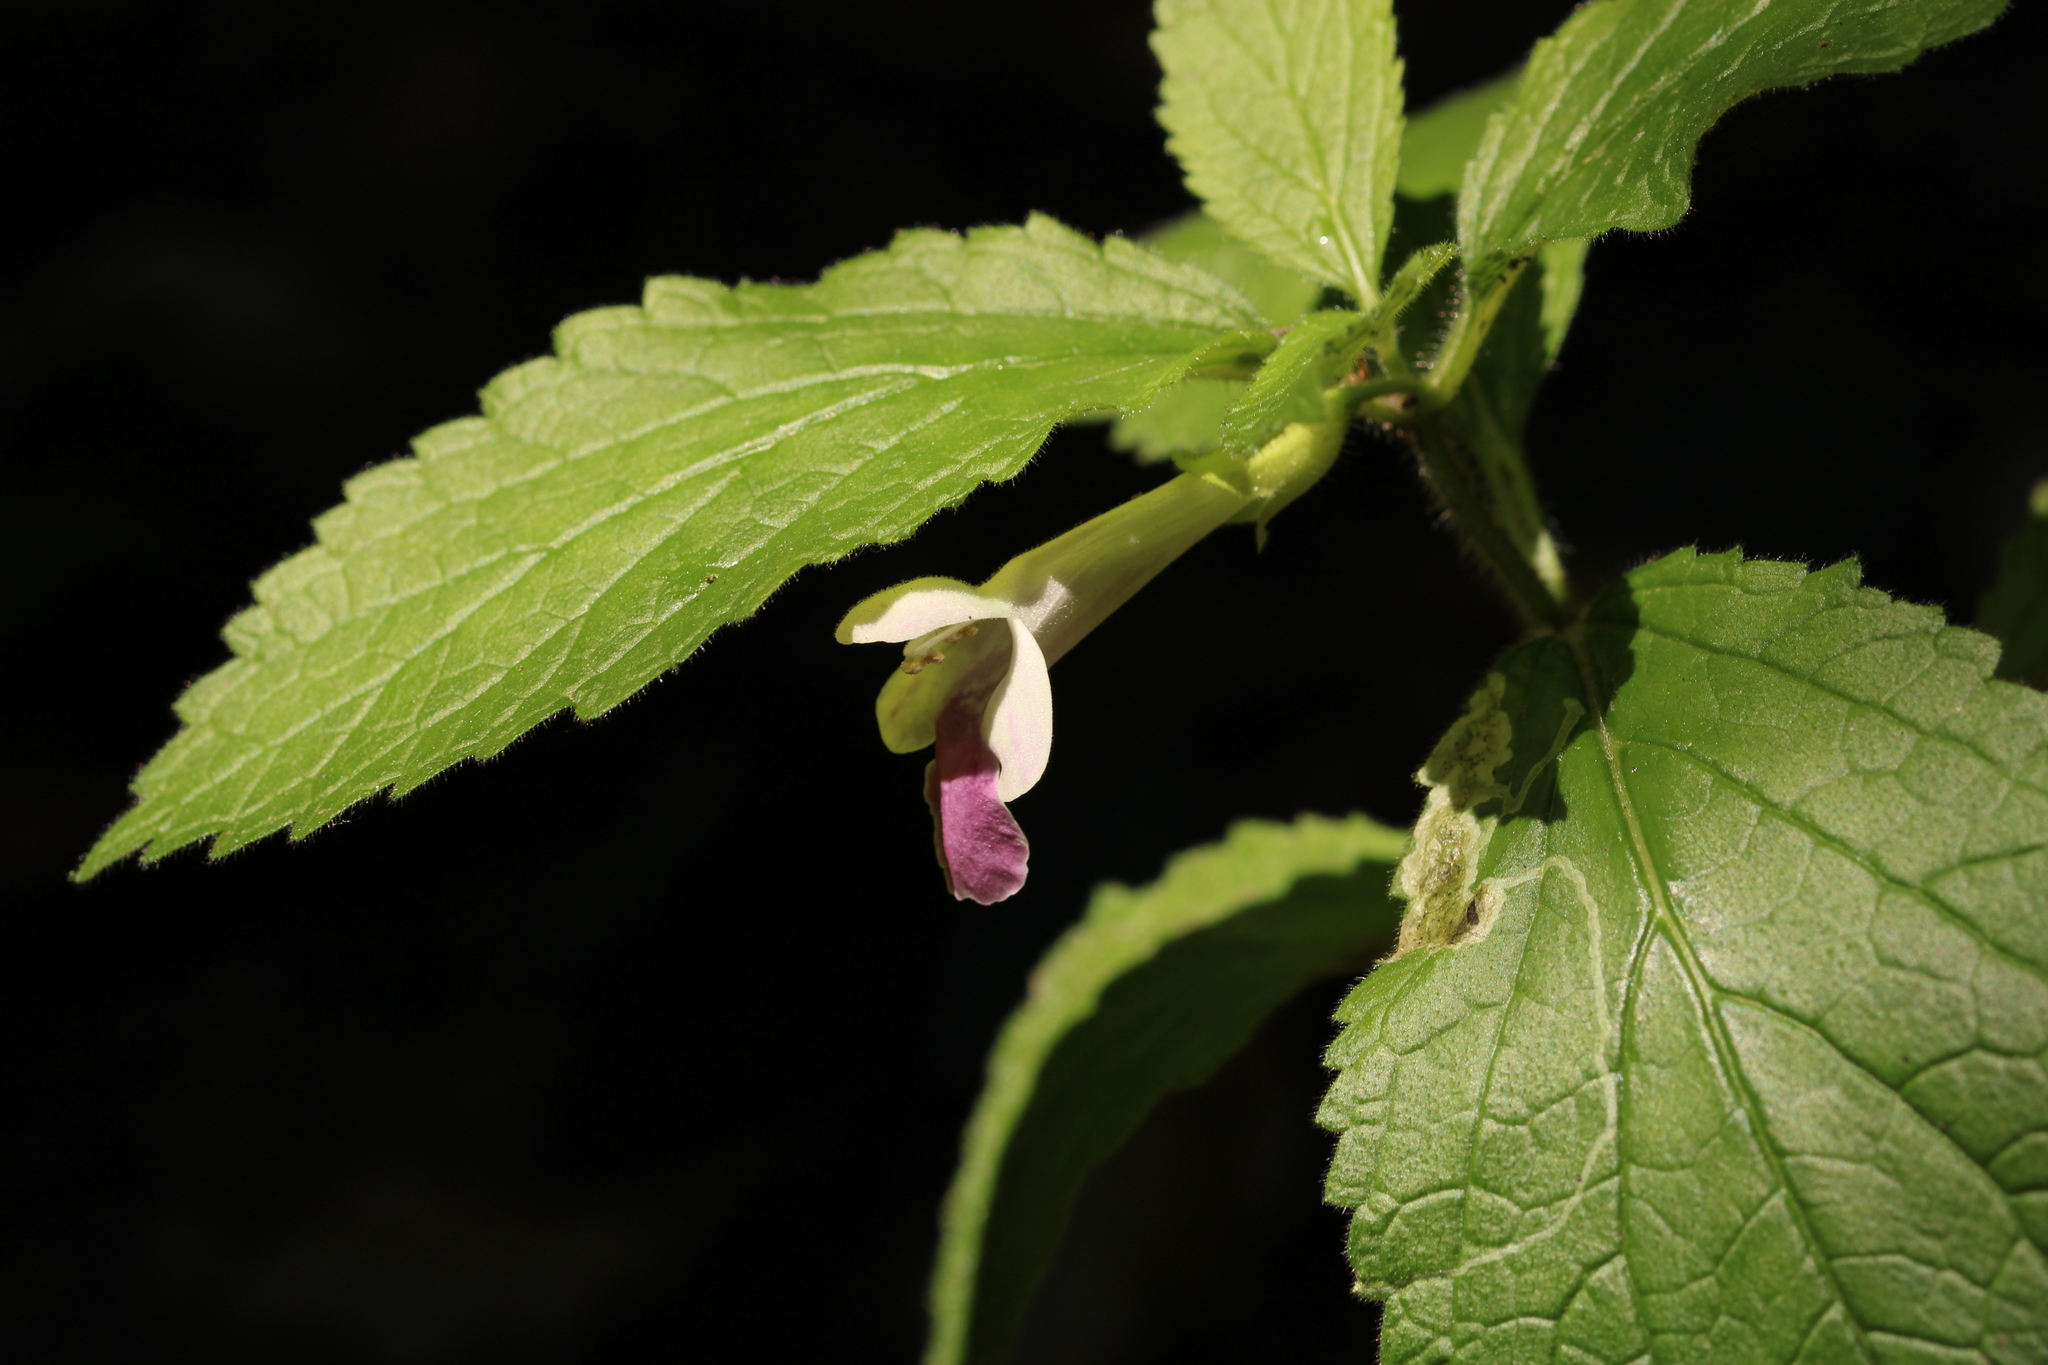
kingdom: Plantae
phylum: Tracheophyta
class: Magnoliopsida
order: Lamiales
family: Lamiaceae
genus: Melittis
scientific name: Melittis melissophyllum
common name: Bastard balm
